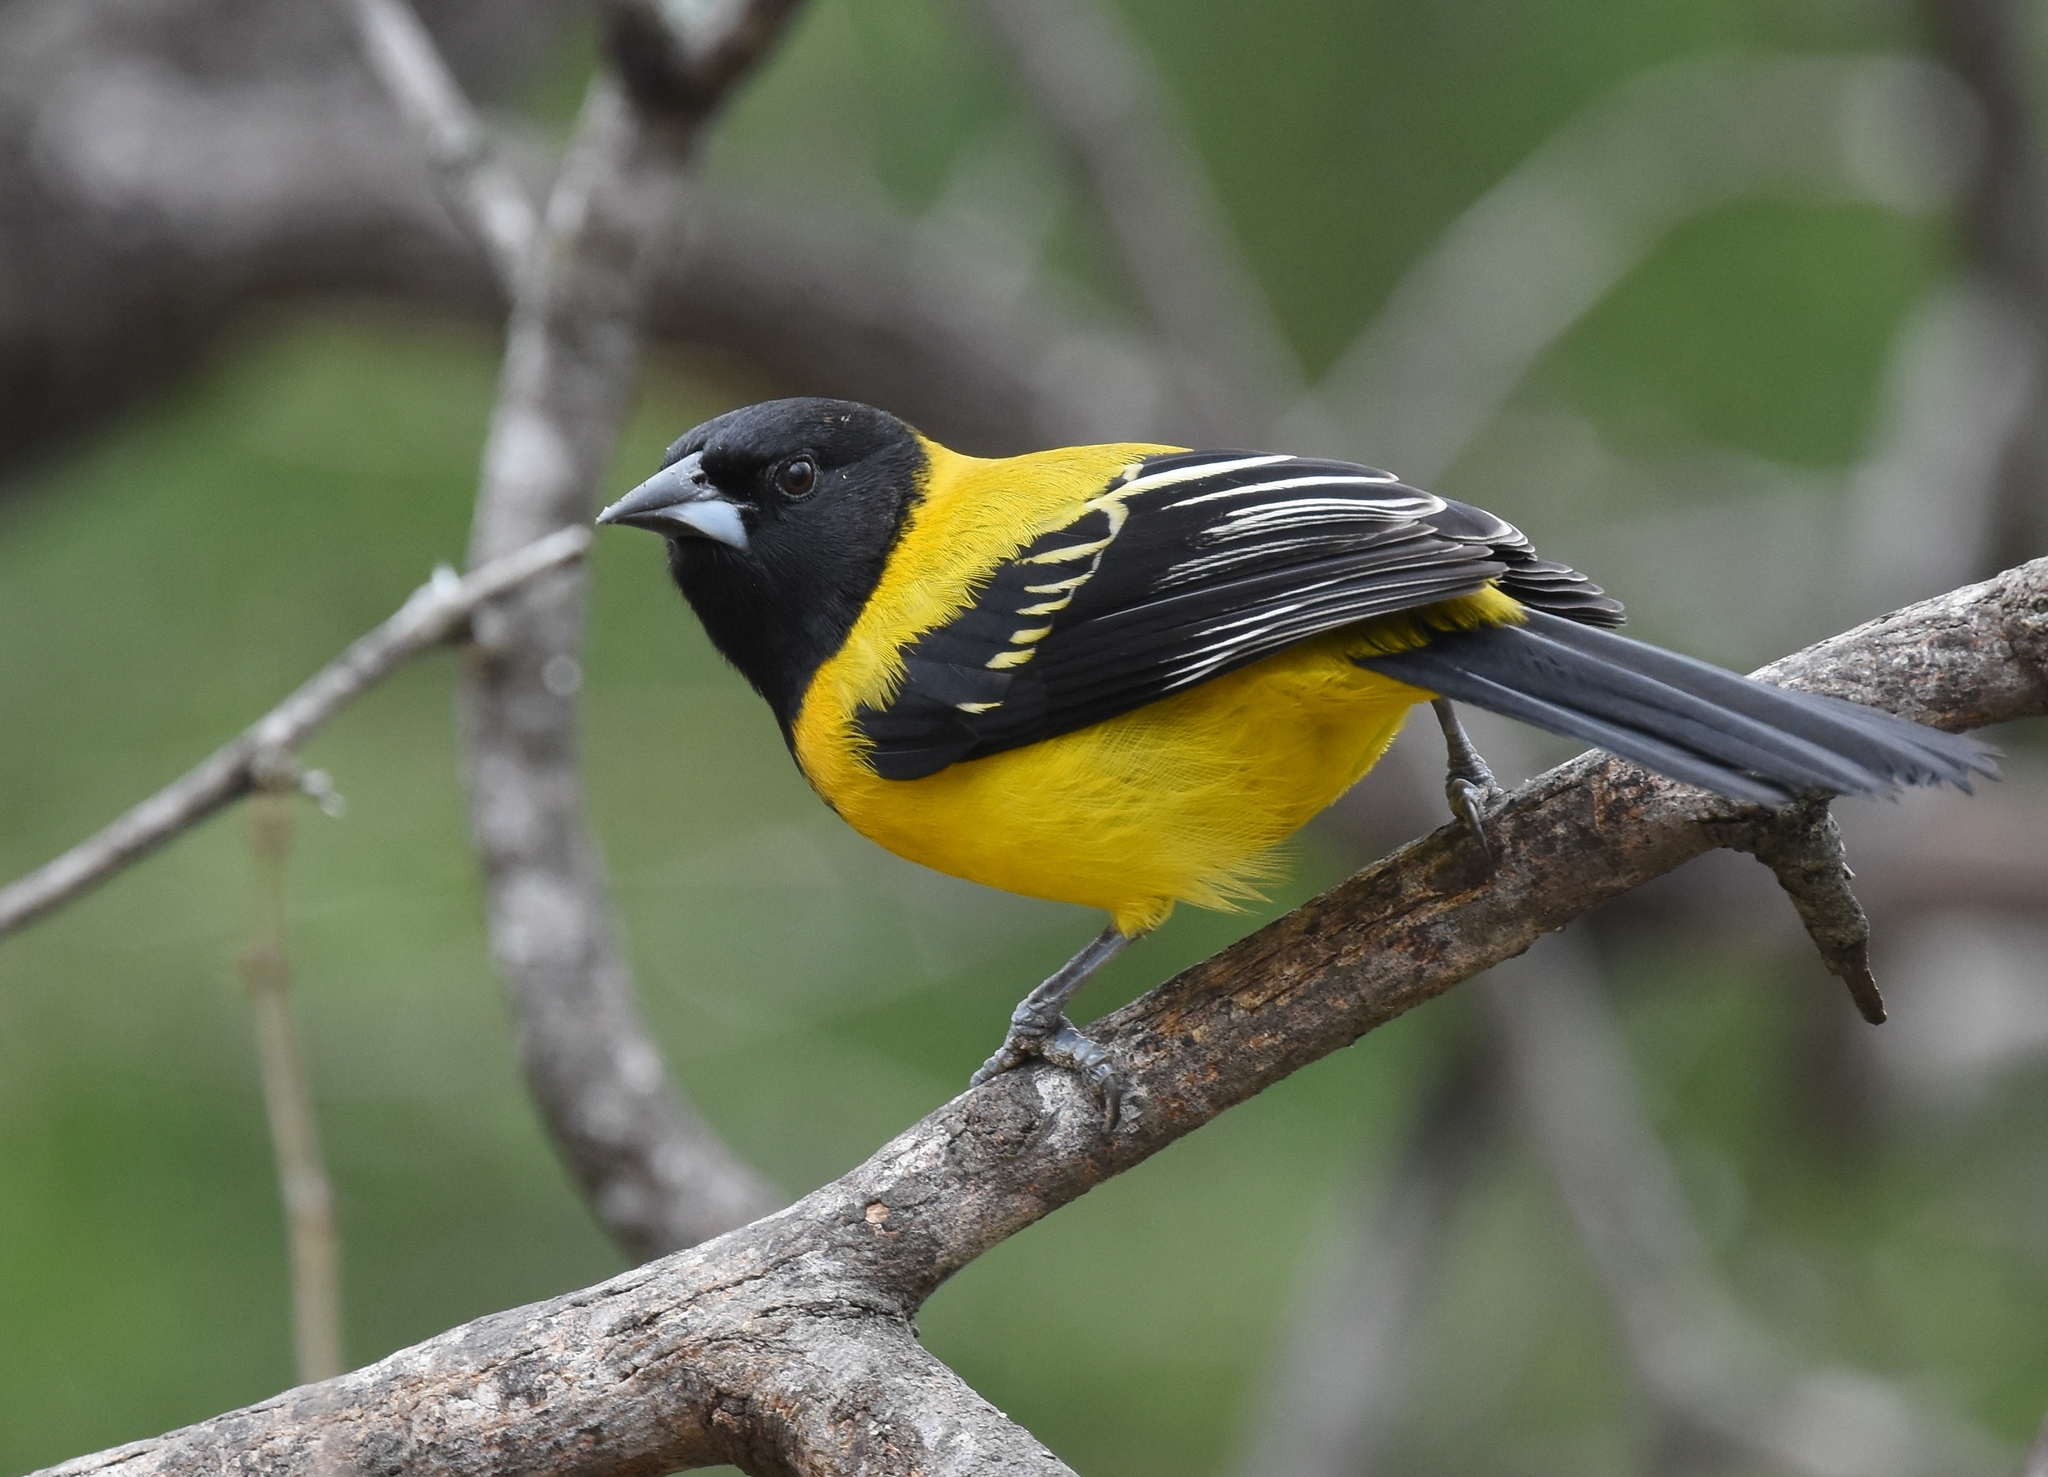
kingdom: Animalia
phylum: Chordata
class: Aves
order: Passeriformes
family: Icteridae
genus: Icterus
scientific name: Icterus graduacauda
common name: Audubon's oriole
